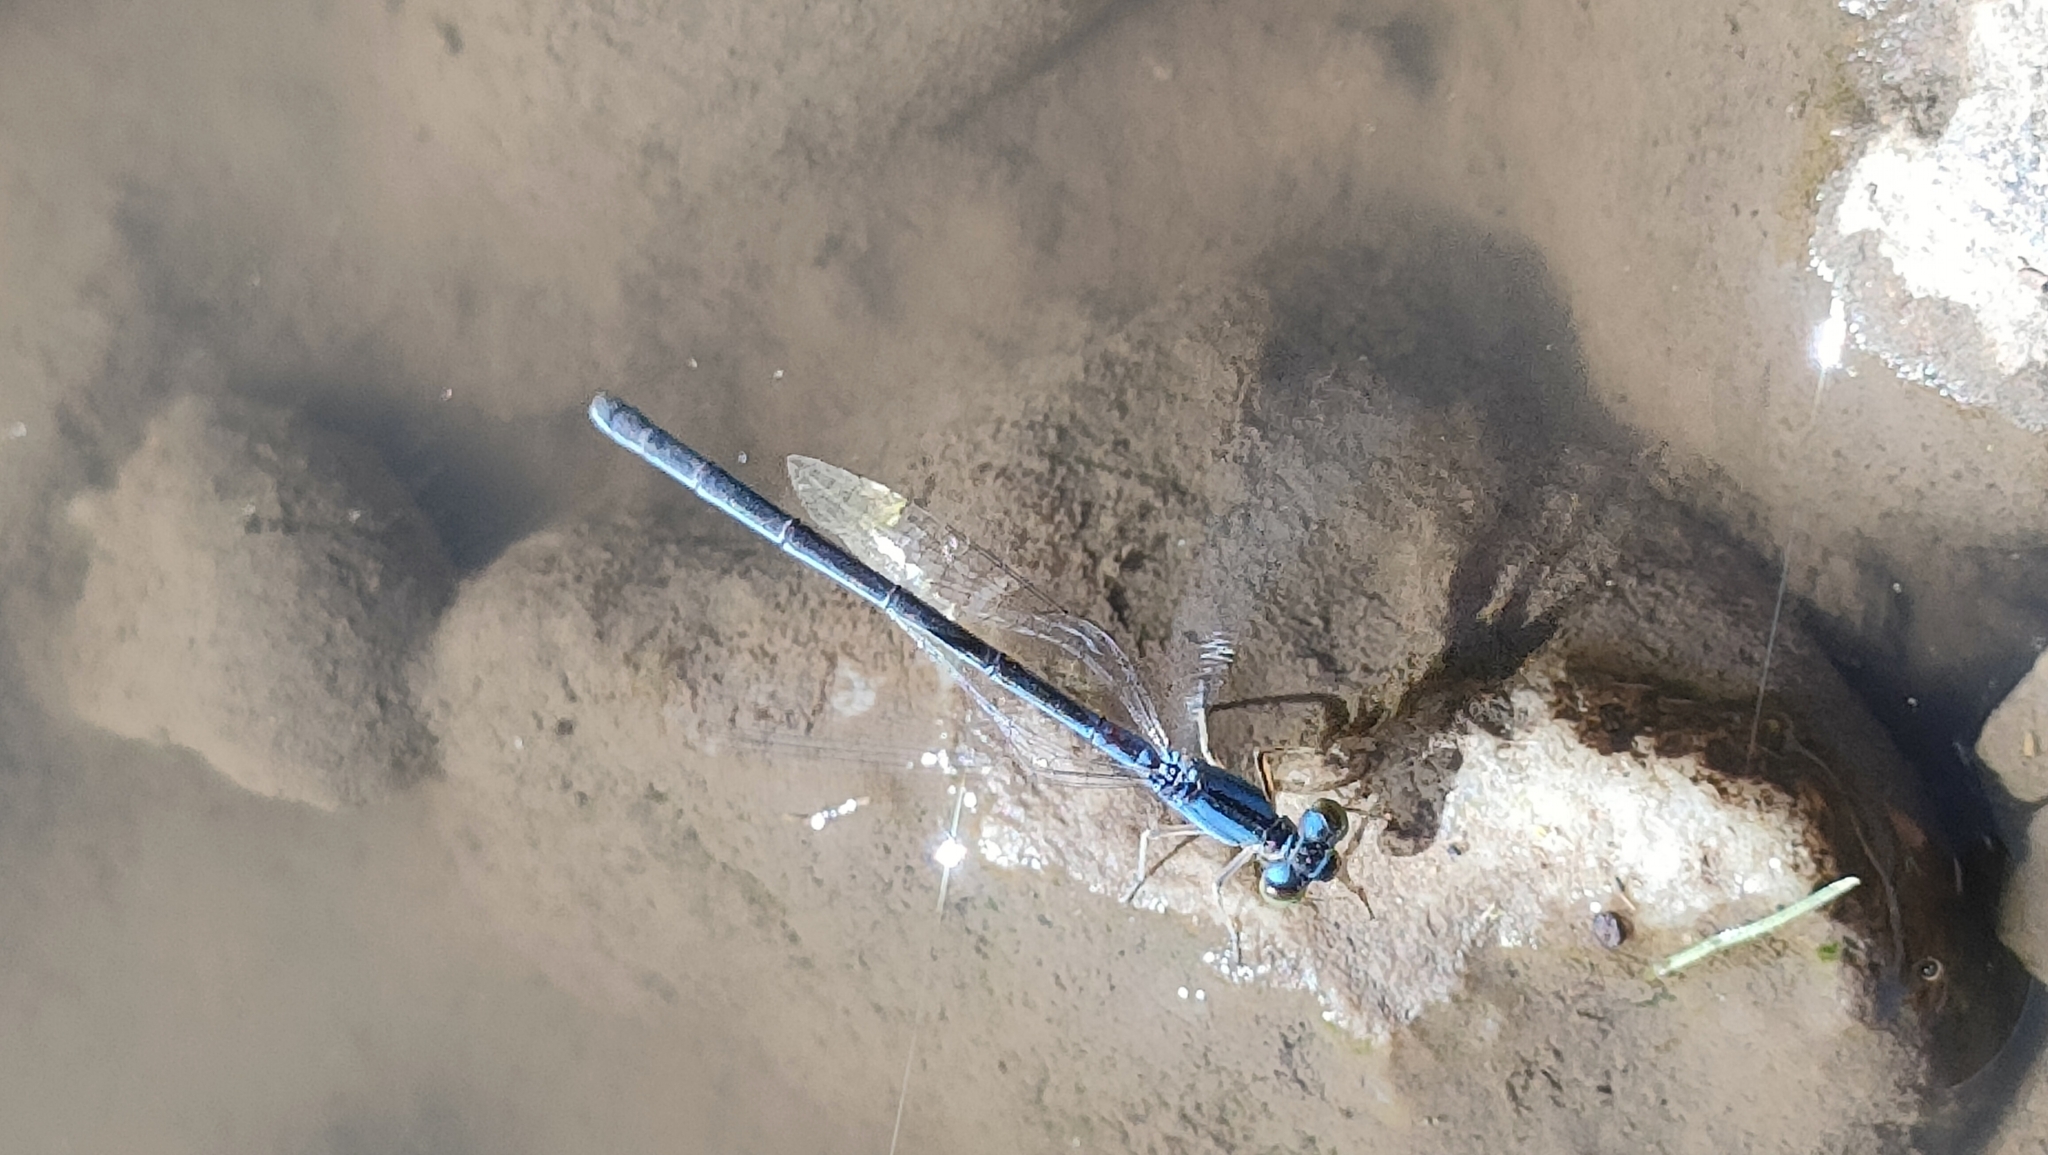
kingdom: Animalia
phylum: Arthropoda
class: Insecta
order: Odonata
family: Coenagrionidae
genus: Ischnura
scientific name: Ischnura pumilio
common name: Scarce blue-tailed damselfly
